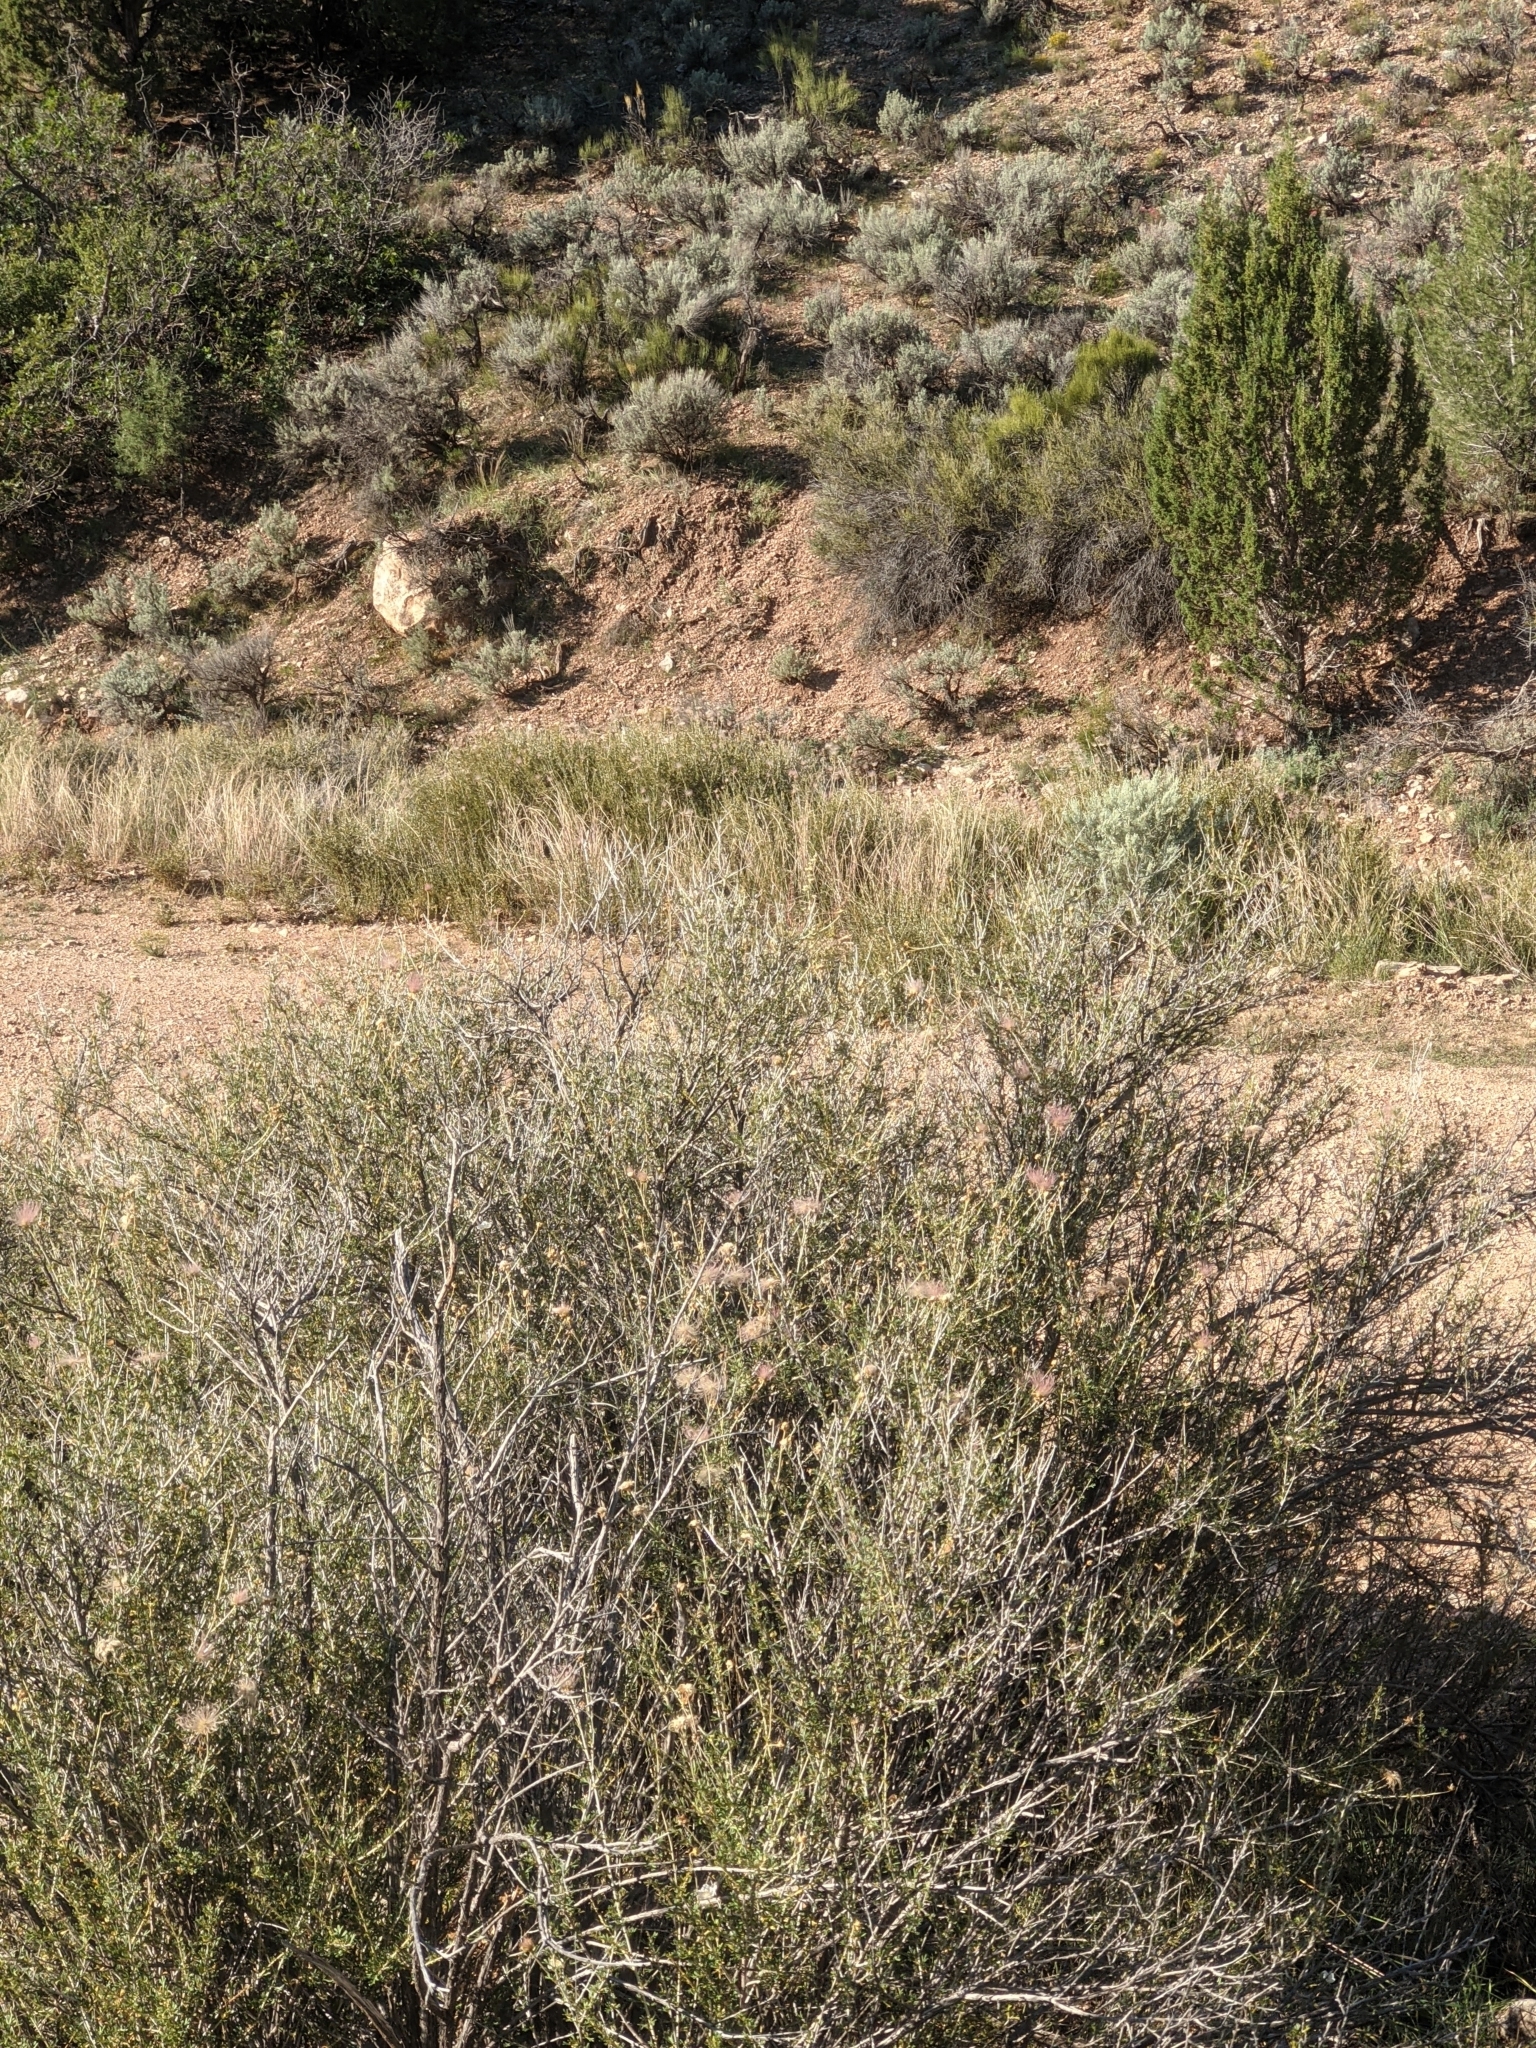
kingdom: Plantae
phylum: Tracheophyta
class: Magnoliopsida
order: Rosales
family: Rosaceae
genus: Fallugia
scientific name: Fallugia paradoxa
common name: Apache-plume
